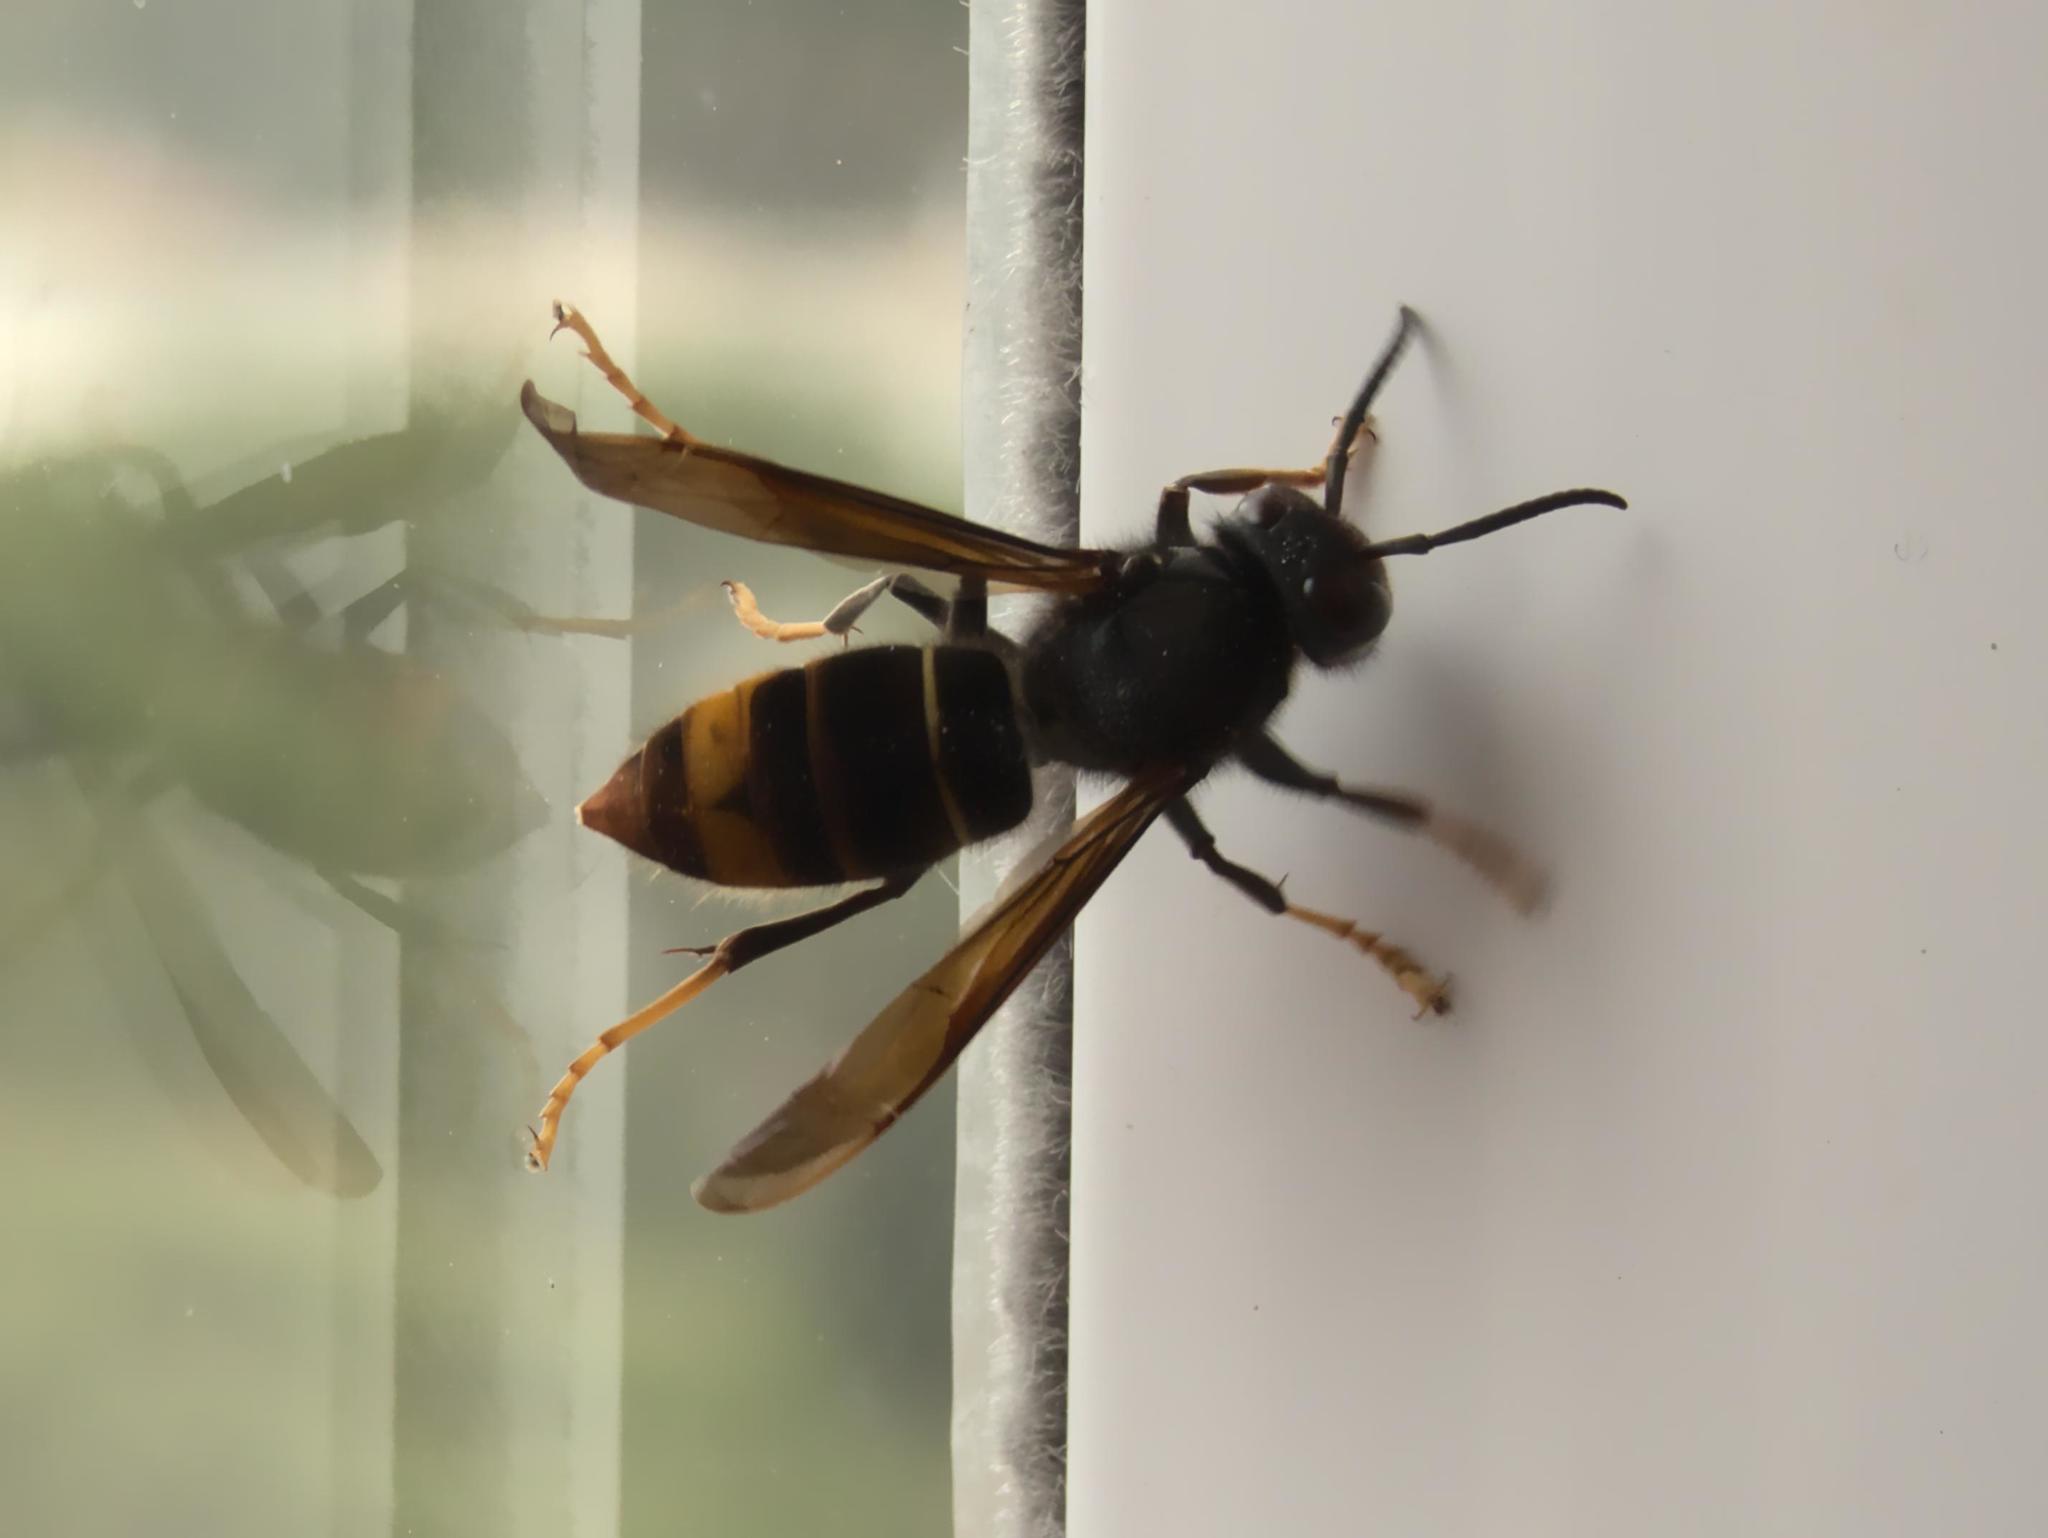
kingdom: Animalia
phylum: Arthropoda
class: Insecta
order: Hymenoptera
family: Vespidae
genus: Vespa
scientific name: Vespa velutina
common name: Asian hornet
